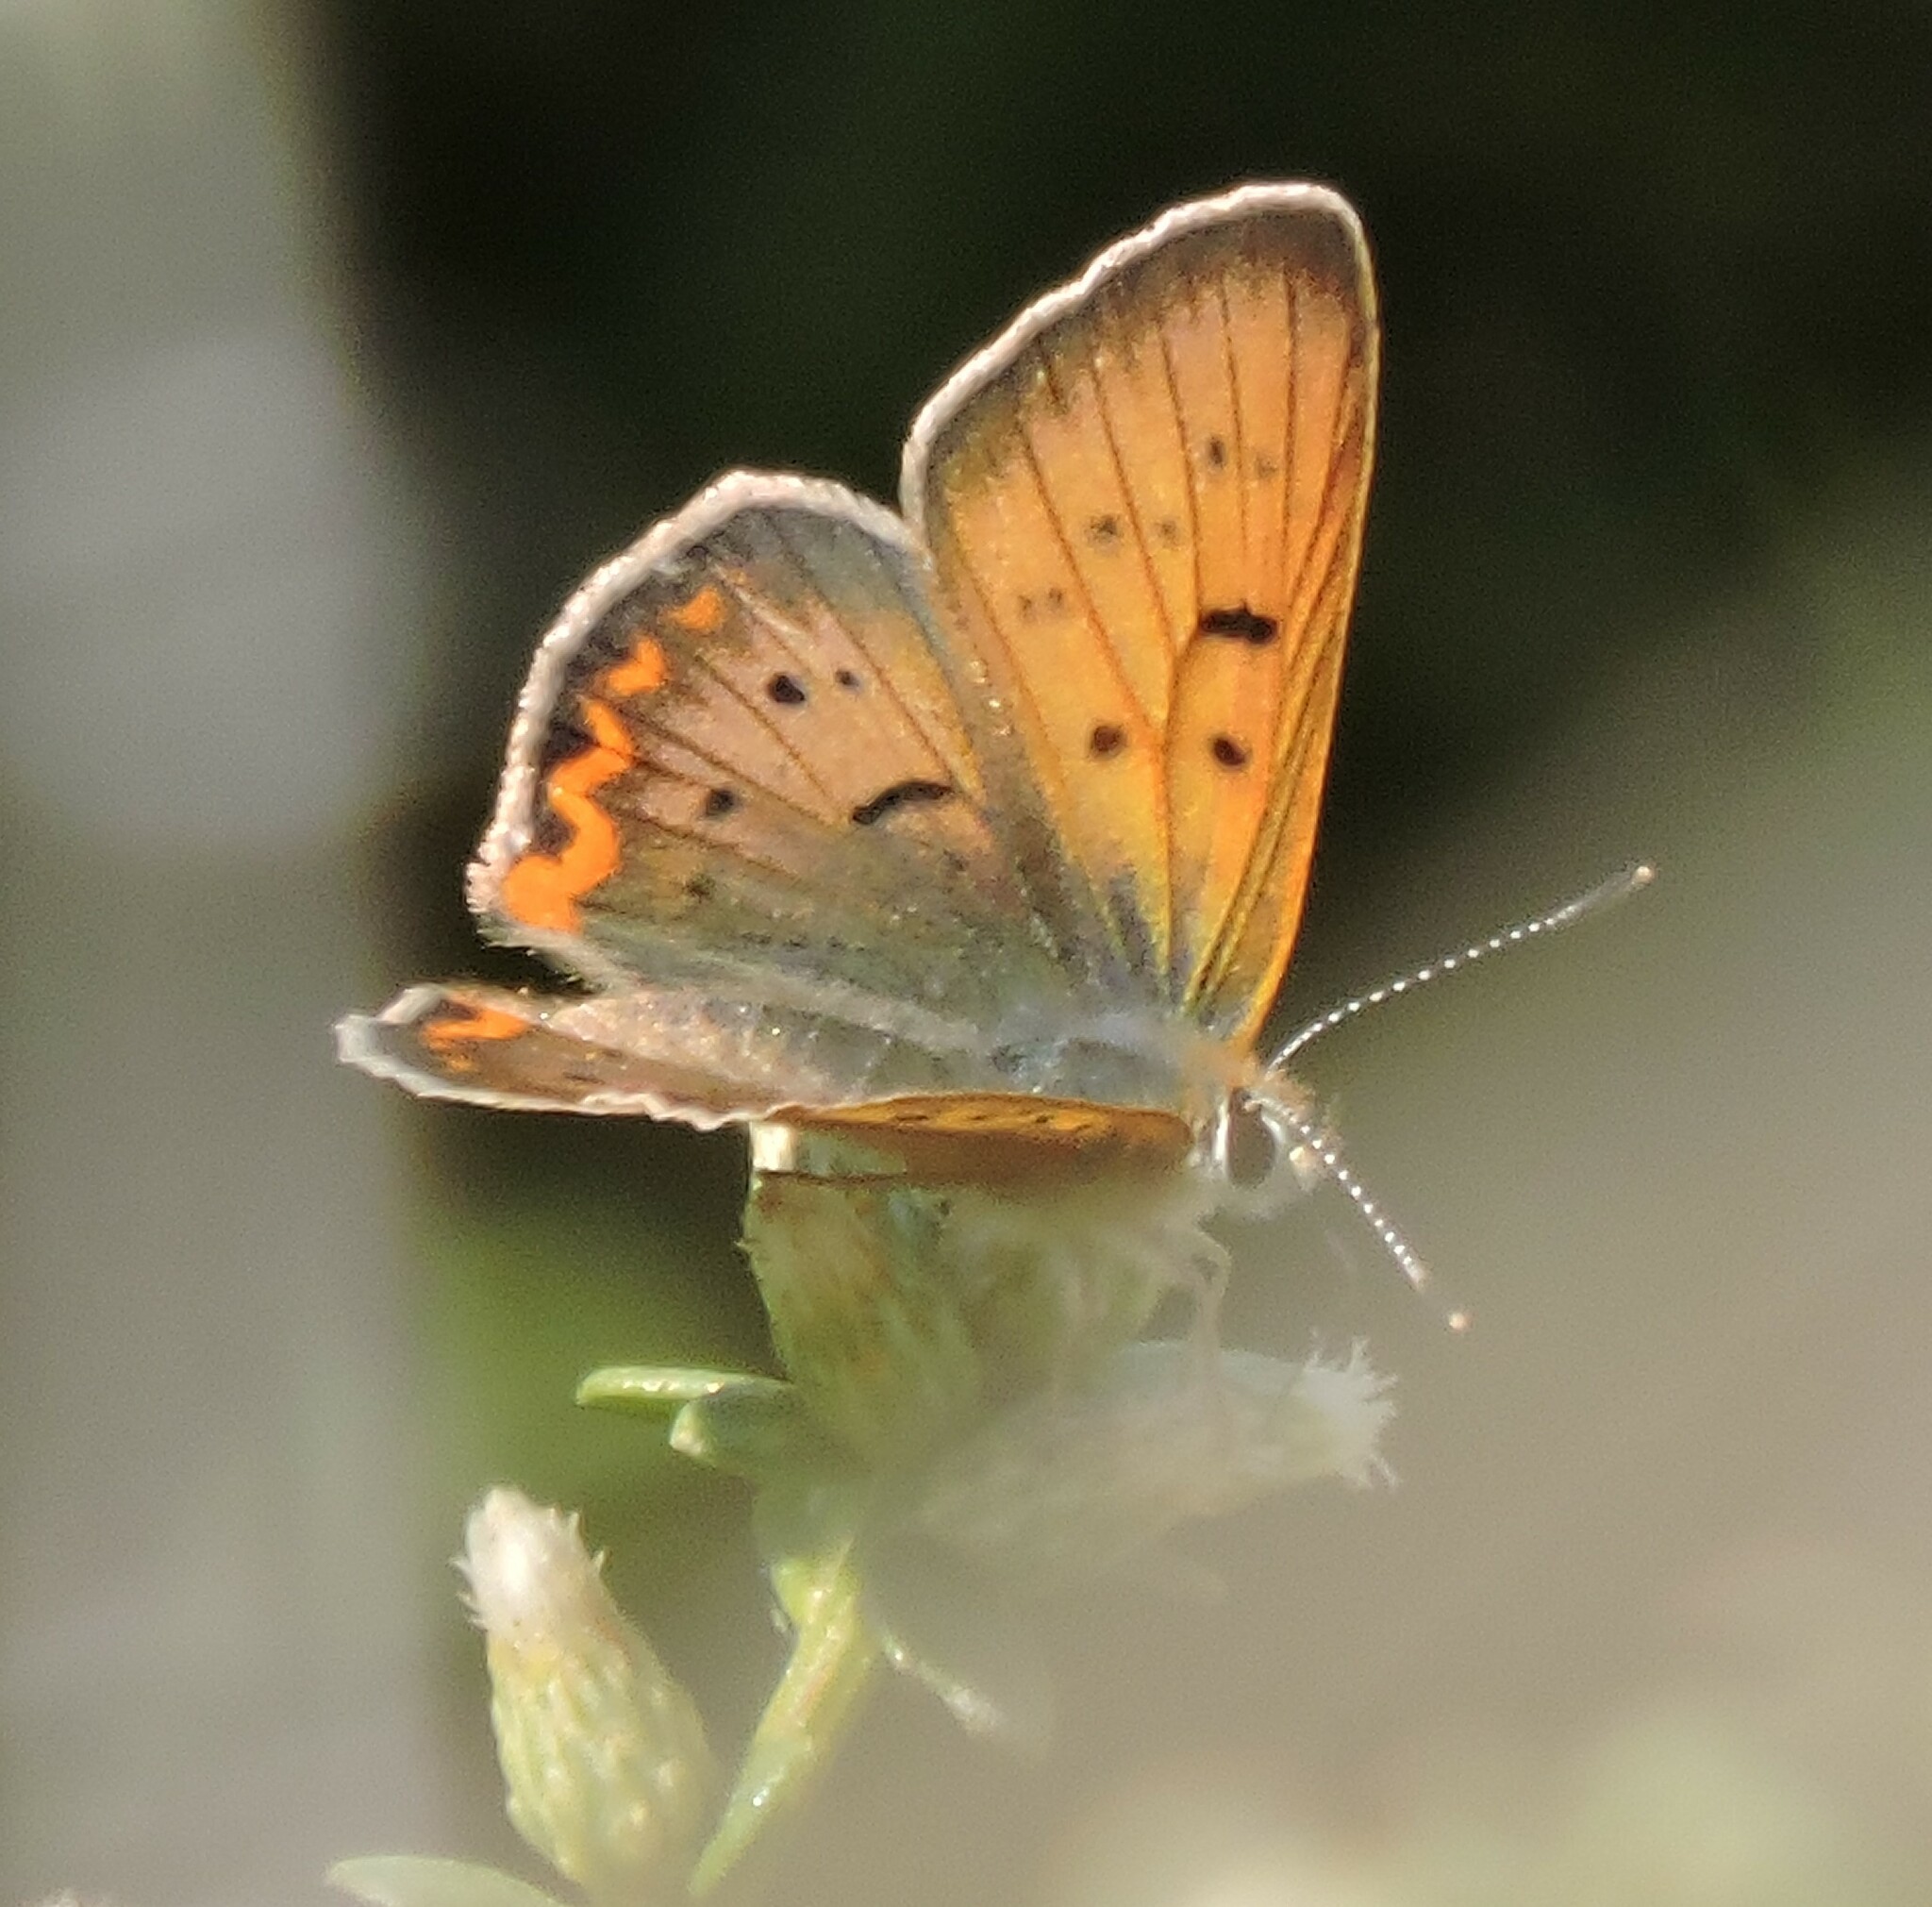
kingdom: Animalia
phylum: Arthropoda
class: Insecta
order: Lepidoptera
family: Lycaenidae
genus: Tharsalea
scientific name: Tharsalea helloides
